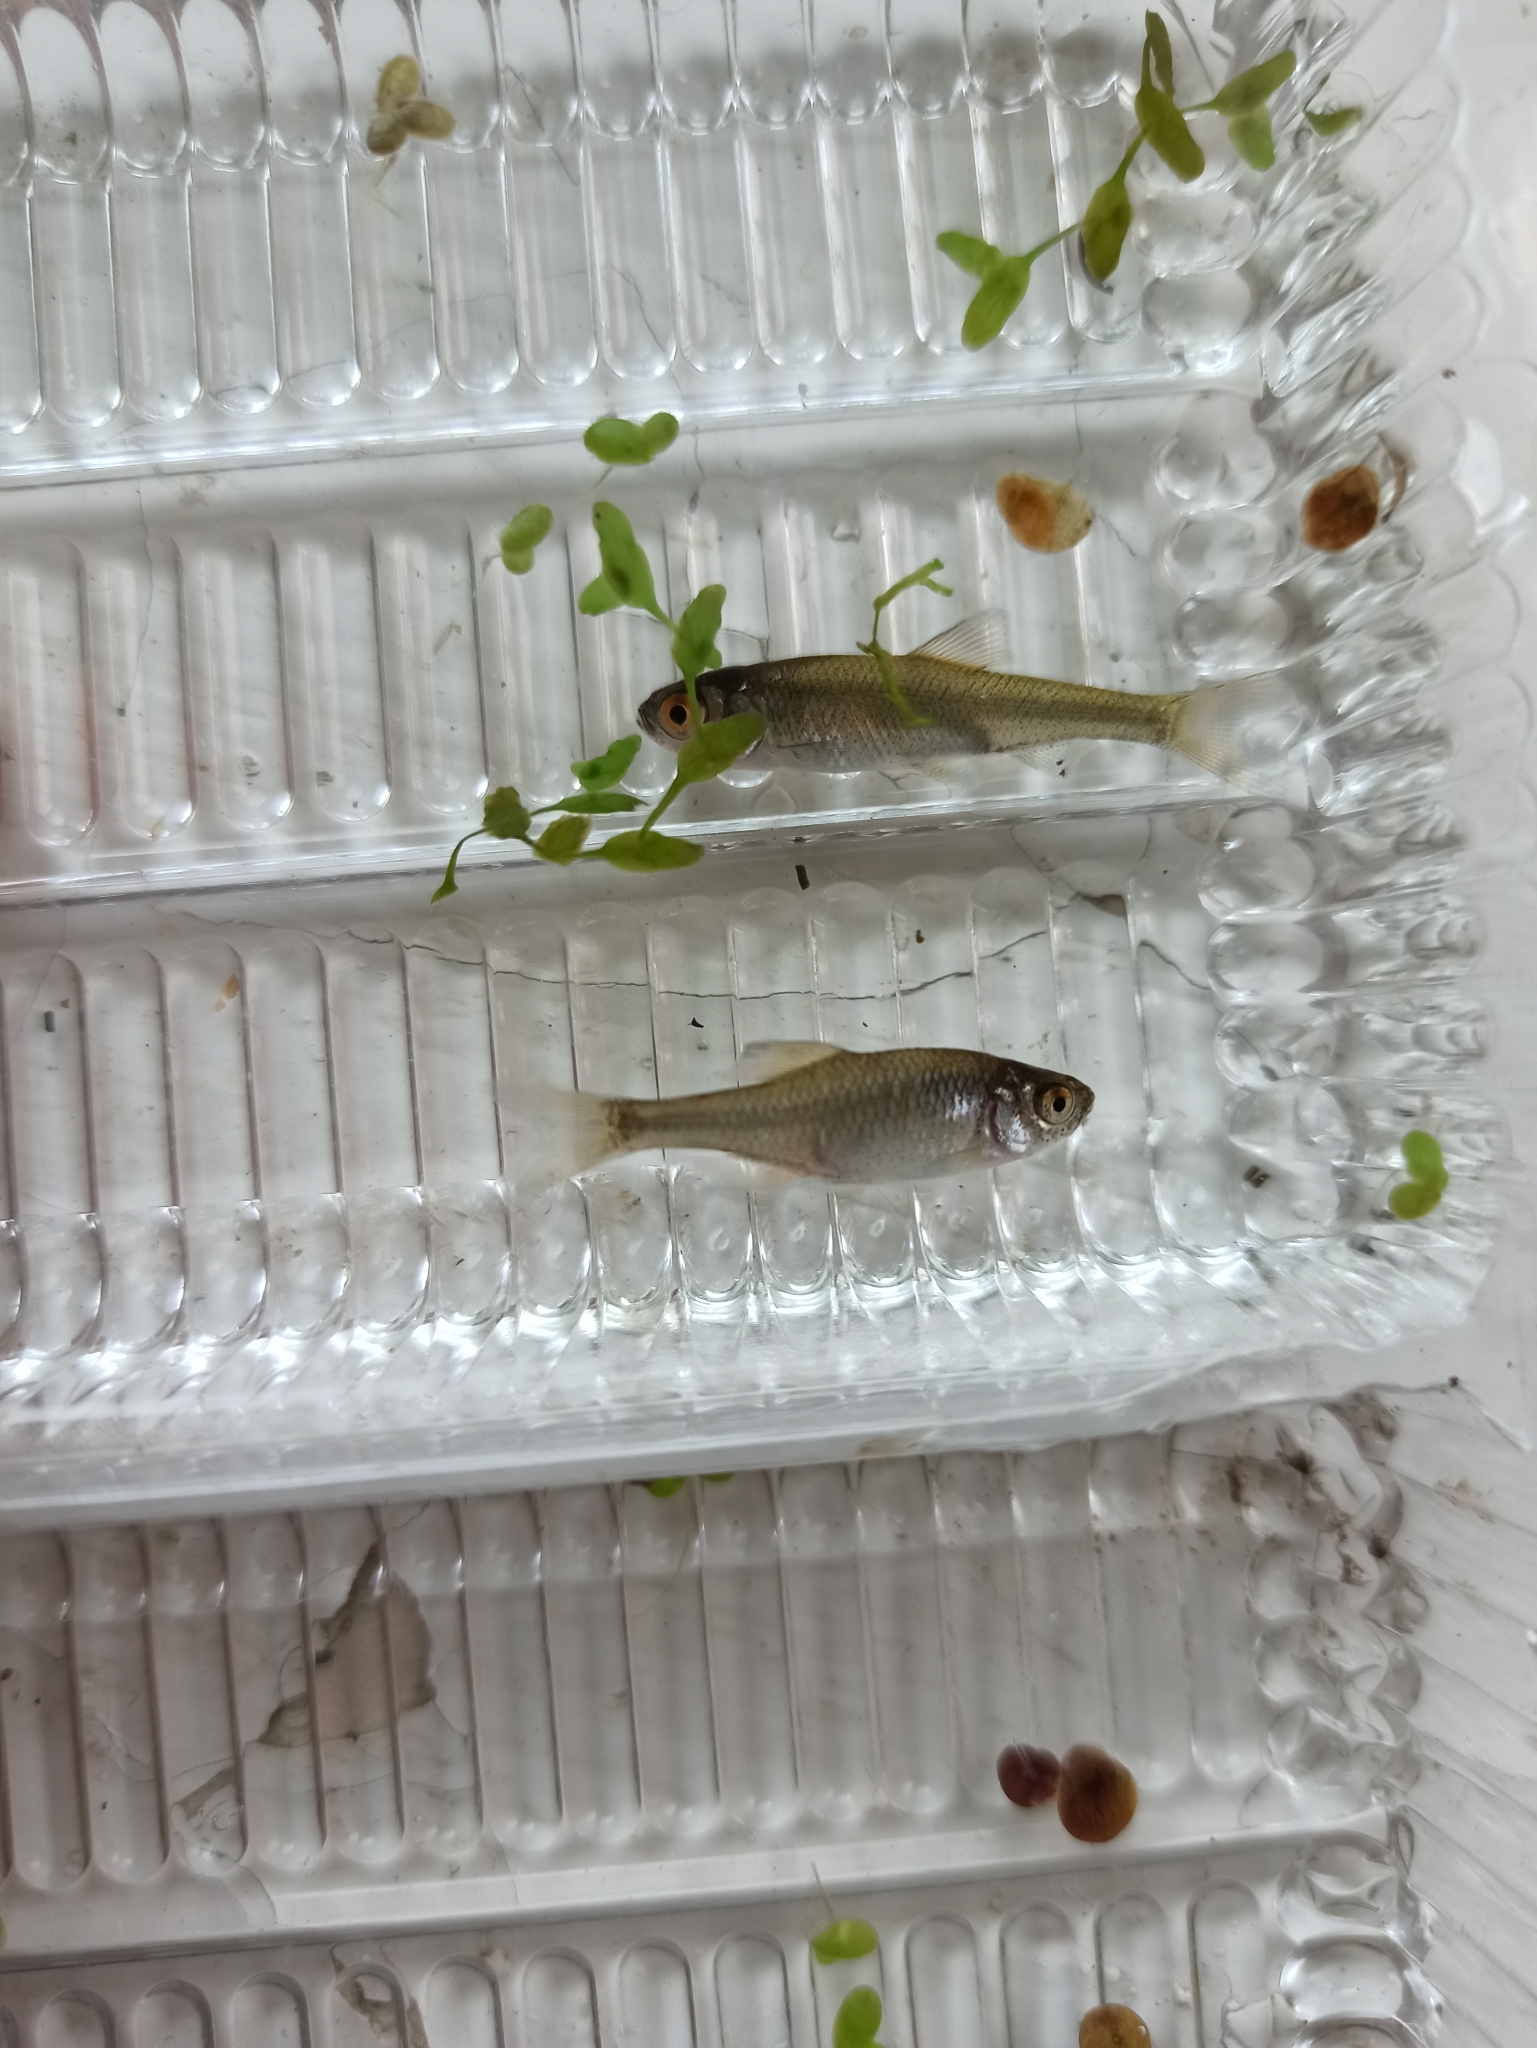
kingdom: Animalia
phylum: Chordata
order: Cypriniformes
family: Cyprinidae
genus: Rhodeus
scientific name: Rhodeus amarus
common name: Bitterling
